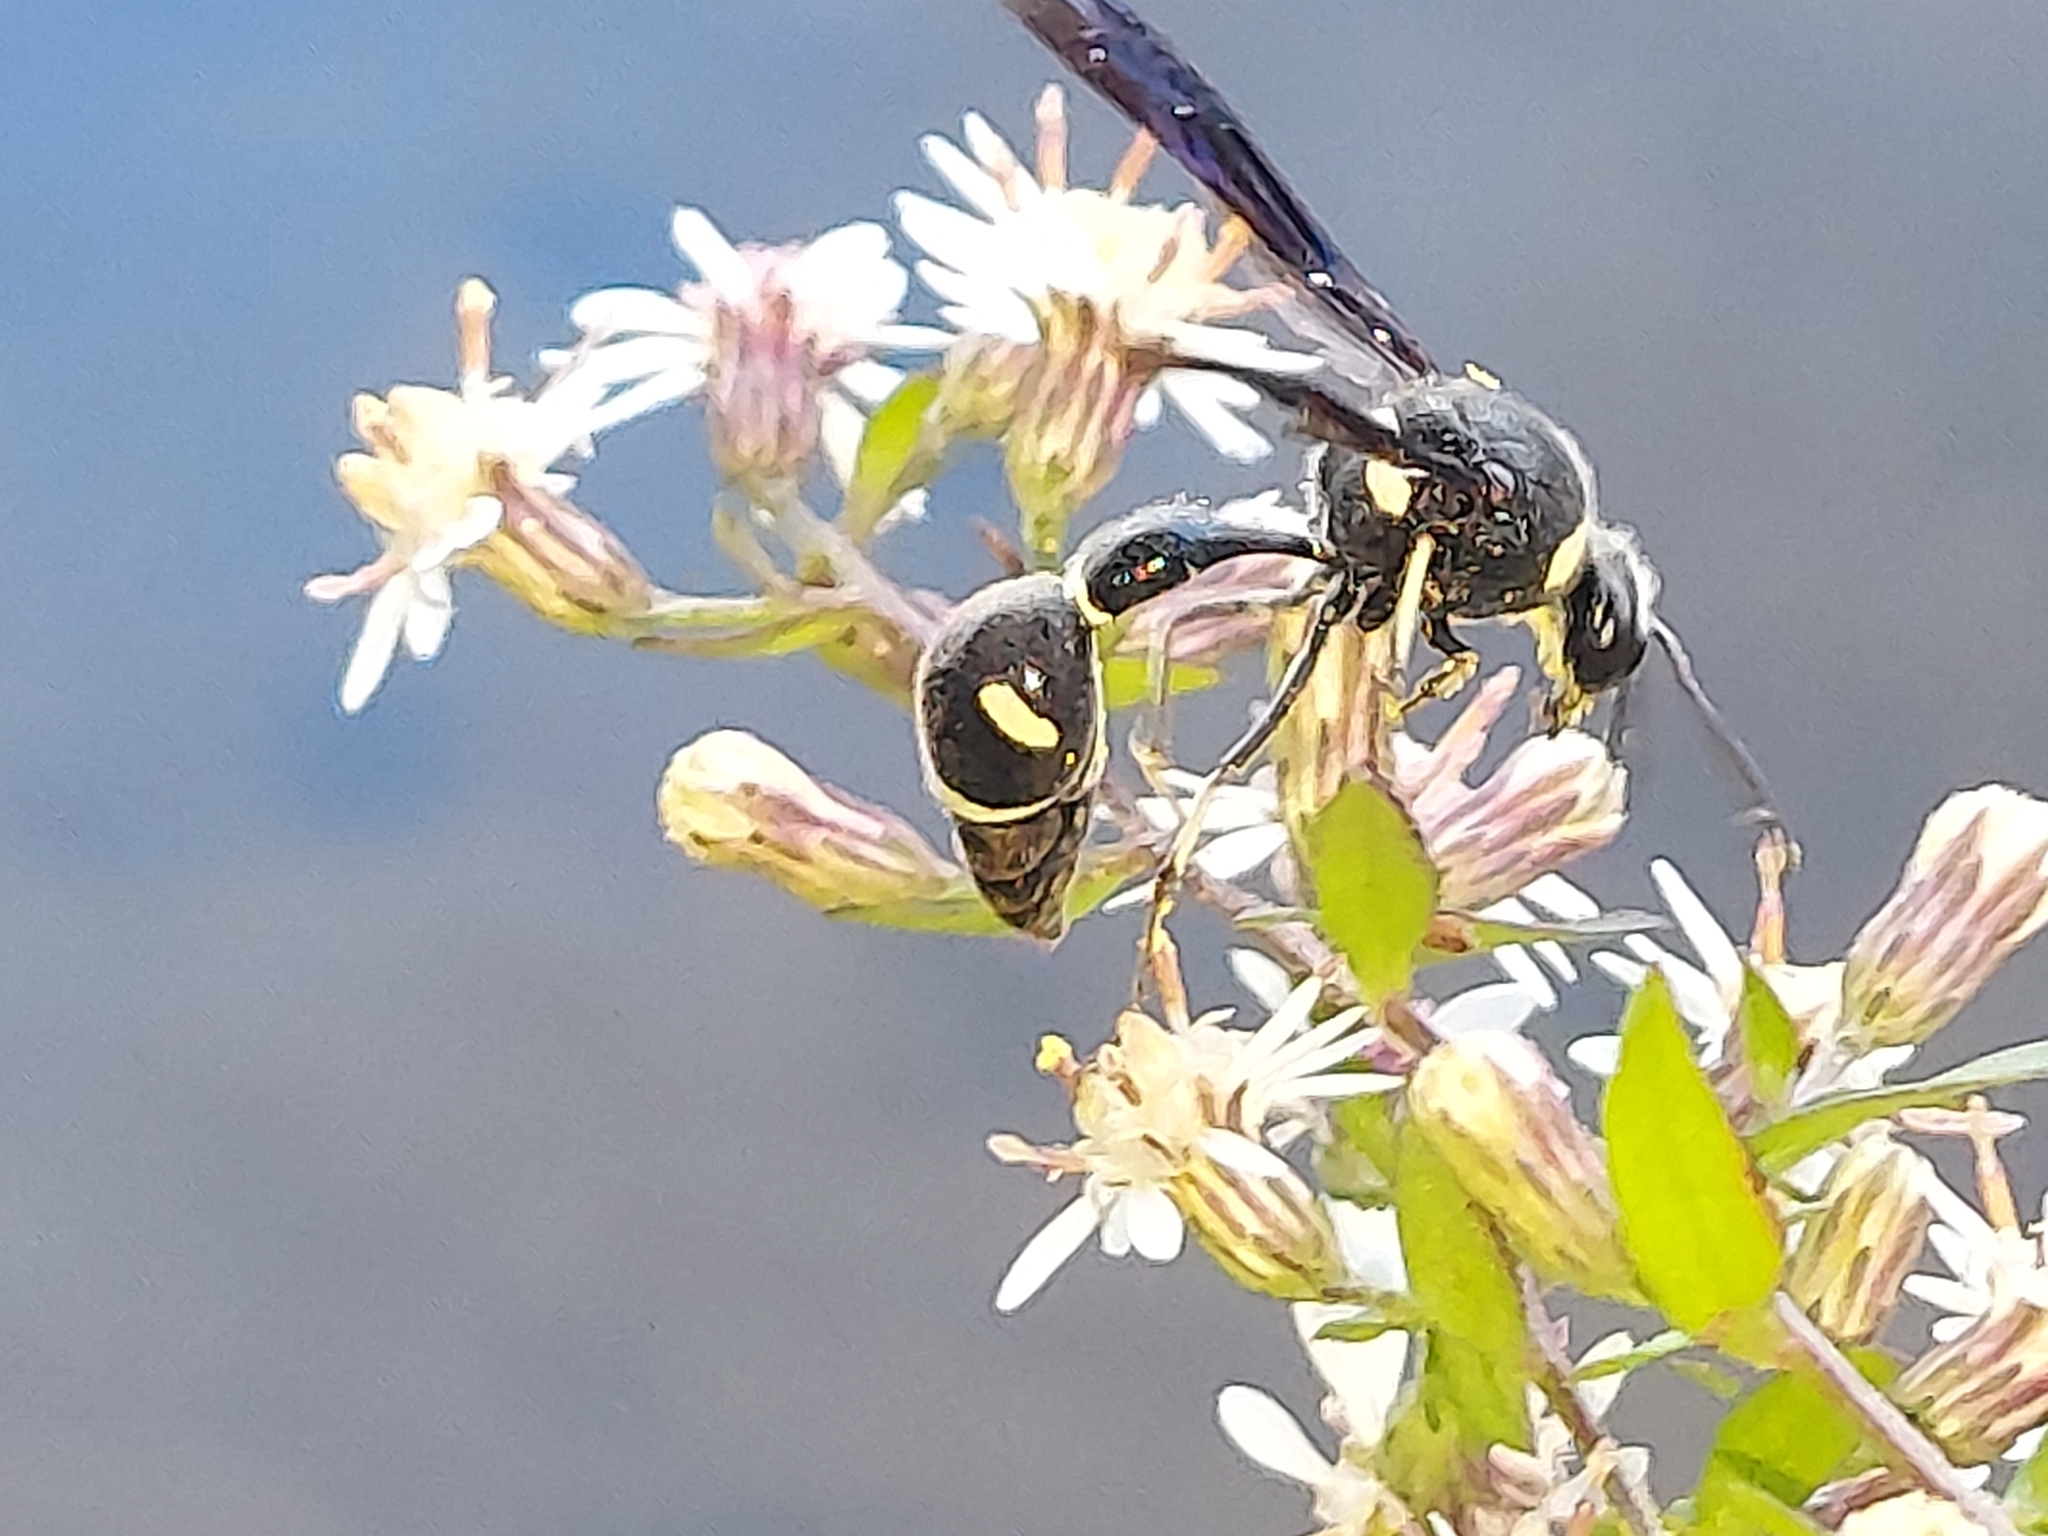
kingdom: Animalia
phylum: Arthropoda
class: Insecta
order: Hymenoptera
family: Vespidae
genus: Eumenes
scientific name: Eumenes fraternus
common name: Fraternal potter wasp
